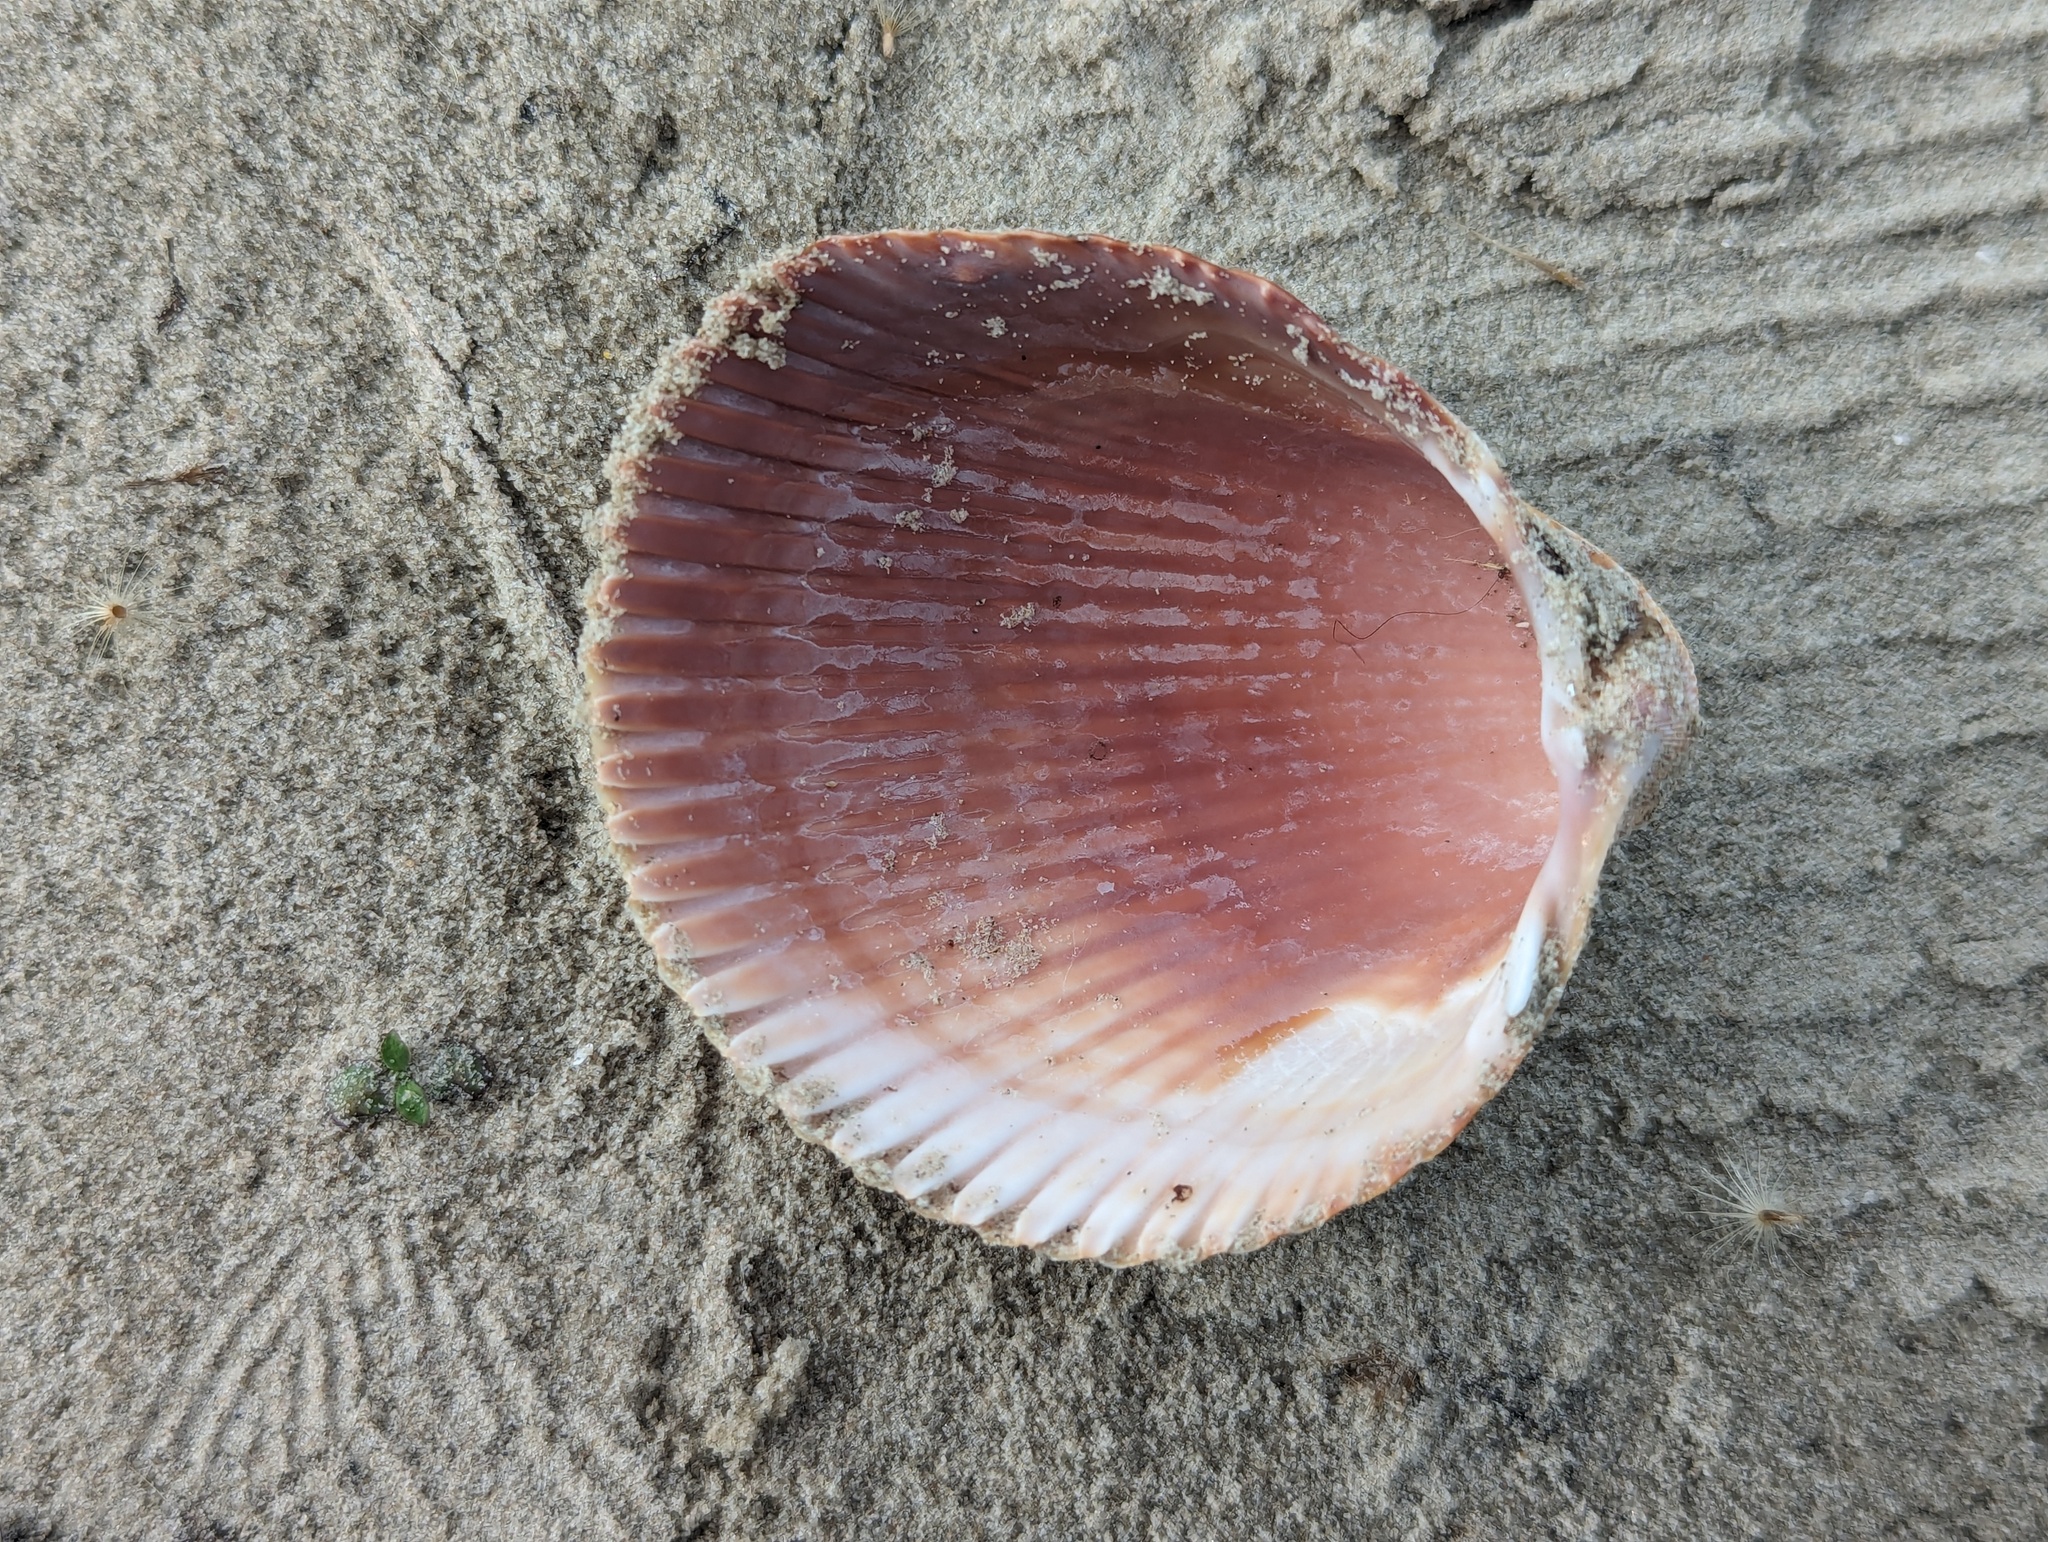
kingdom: Animalia
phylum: Mollusca
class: Bivalvia
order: Cardiida
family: Cardiidae
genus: Dinocardium
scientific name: Dinocardium robustum
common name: Atlantic giant cockle
